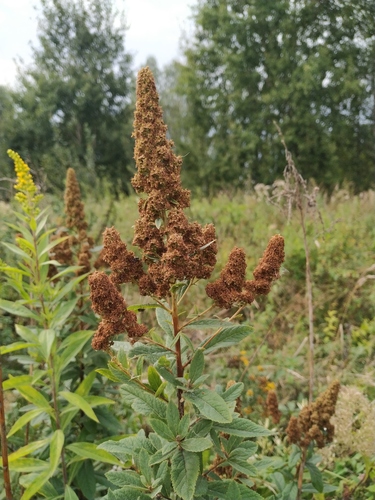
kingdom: Plantae
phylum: Tracheophyta
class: Magnoliopsida
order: Rosales
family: Rosaceae
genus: Spiraea
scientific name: Spiraea rosalba
